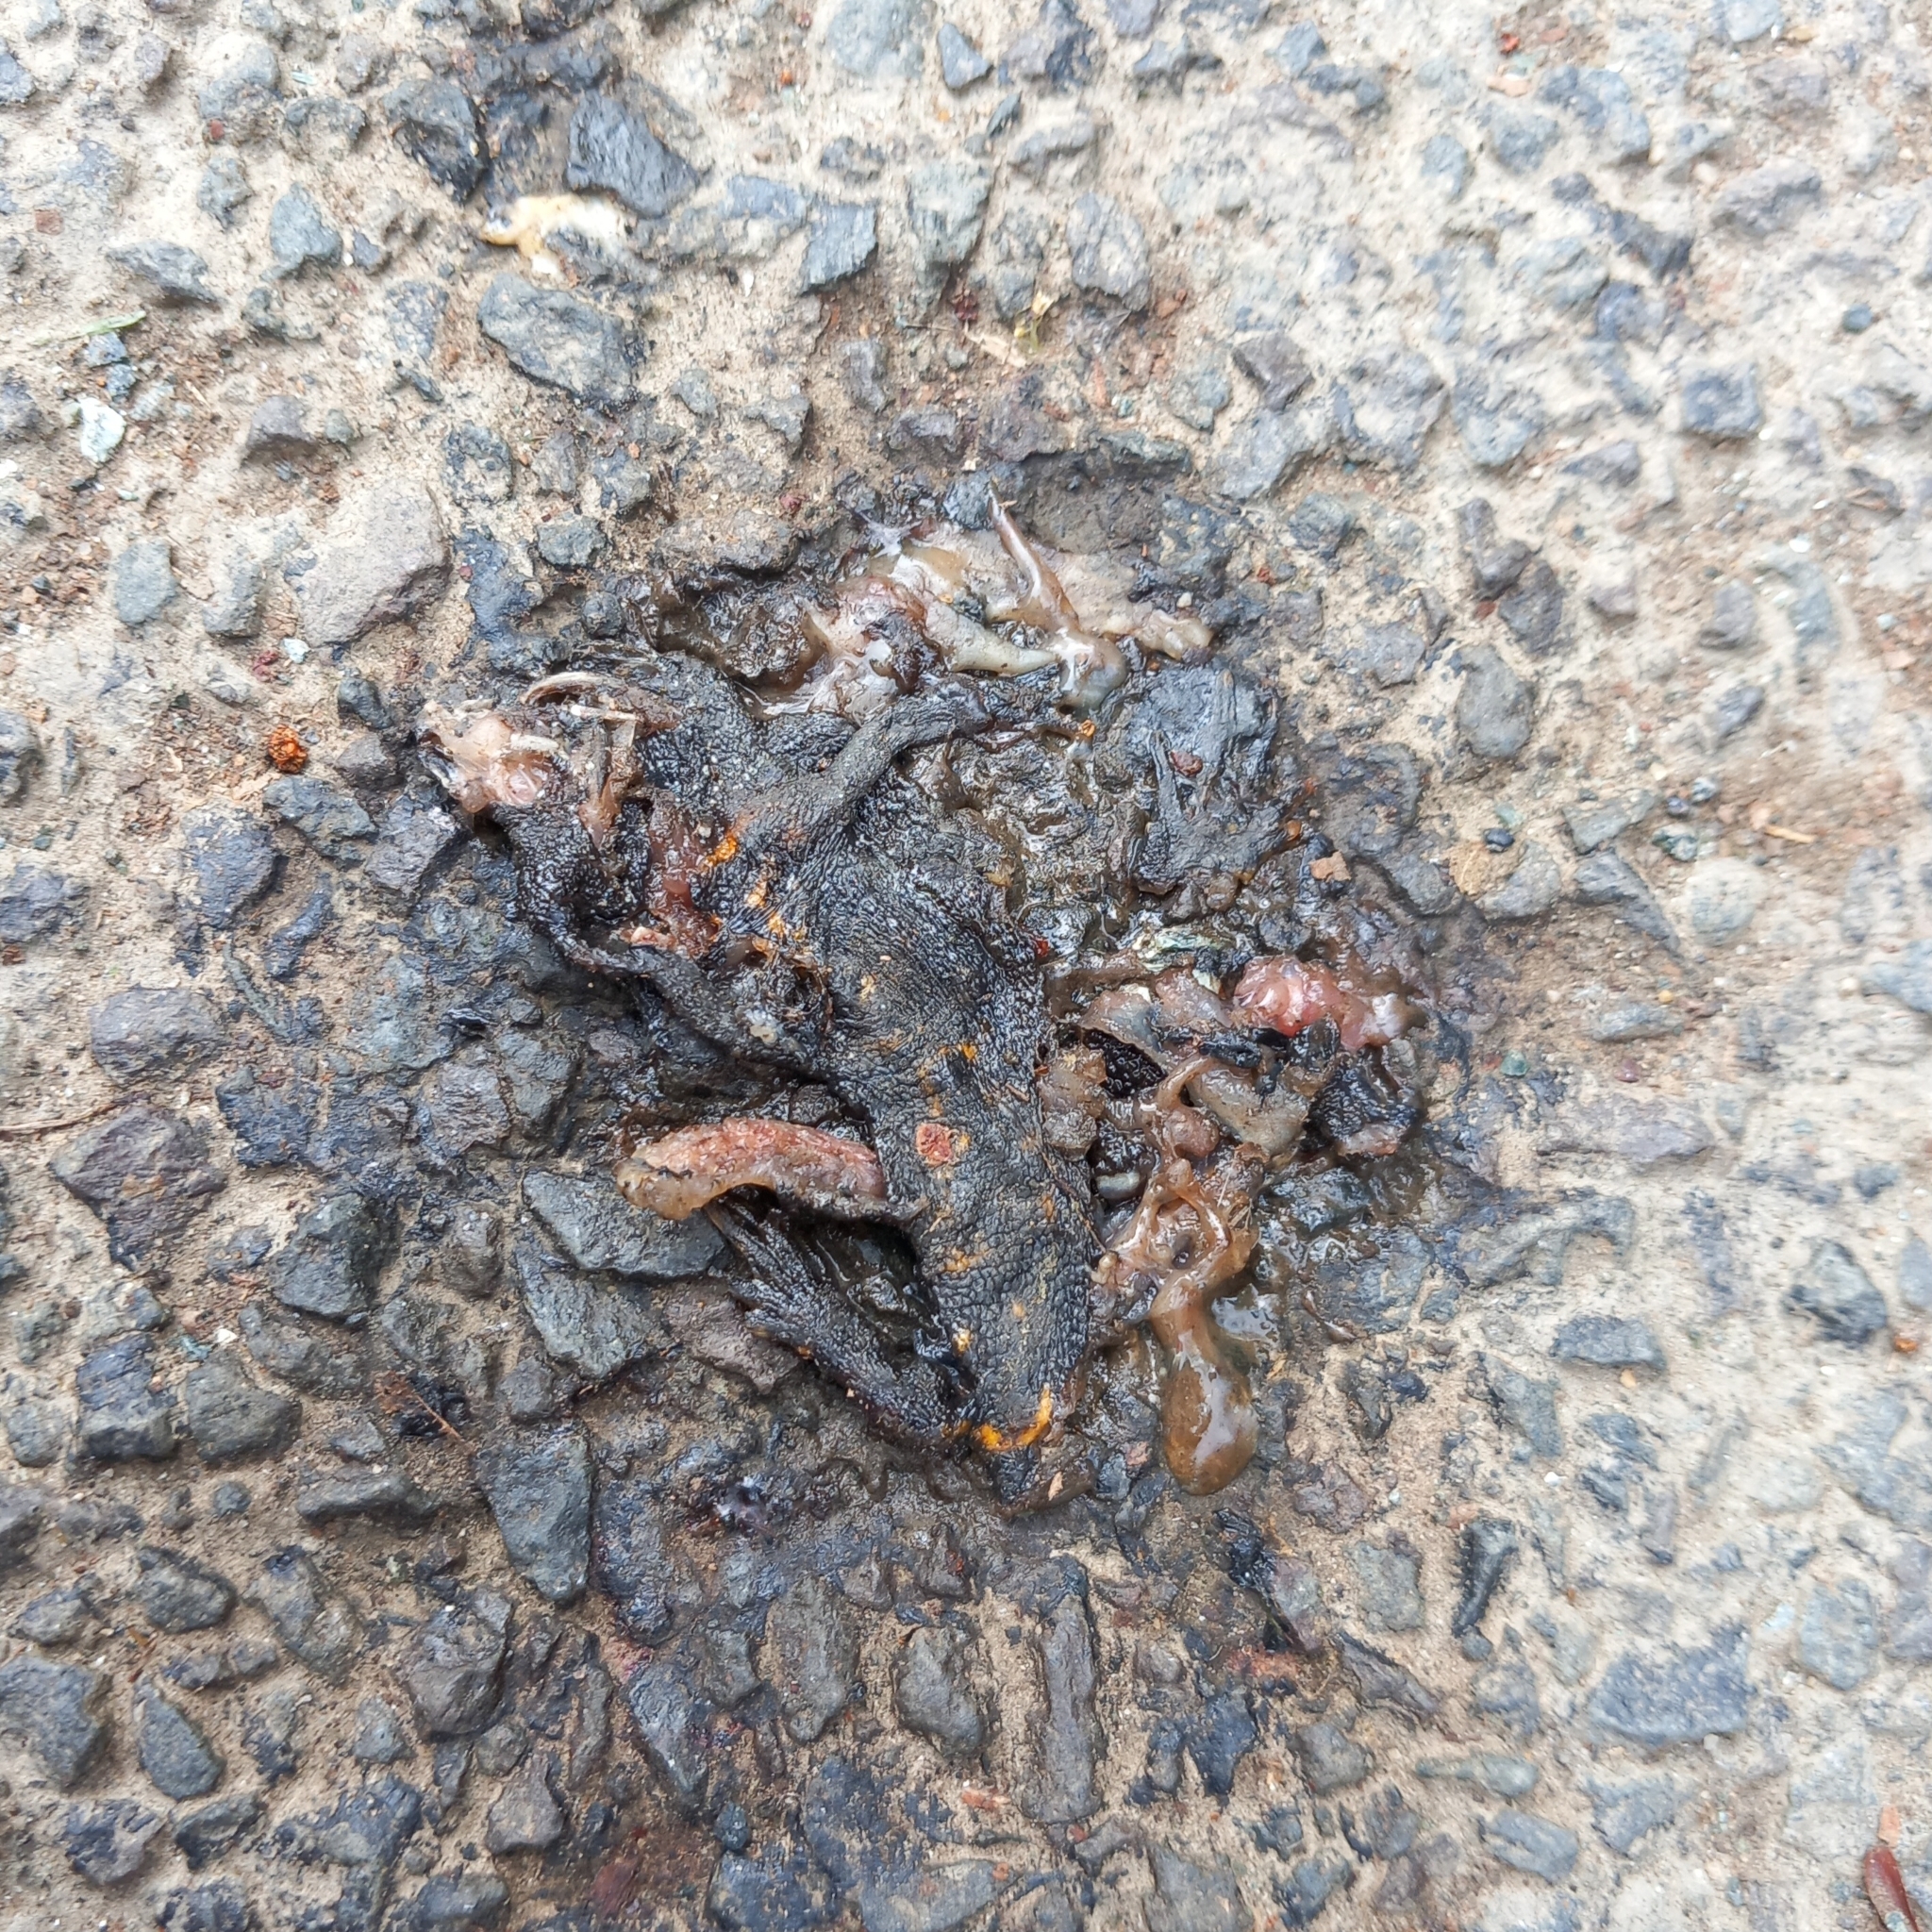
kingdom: Animalia
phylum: Chordata
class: Amphibia
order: Caudata
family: Salamandridae
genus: Triturus
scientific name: Triturus carnifex
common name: Italian crested newt
